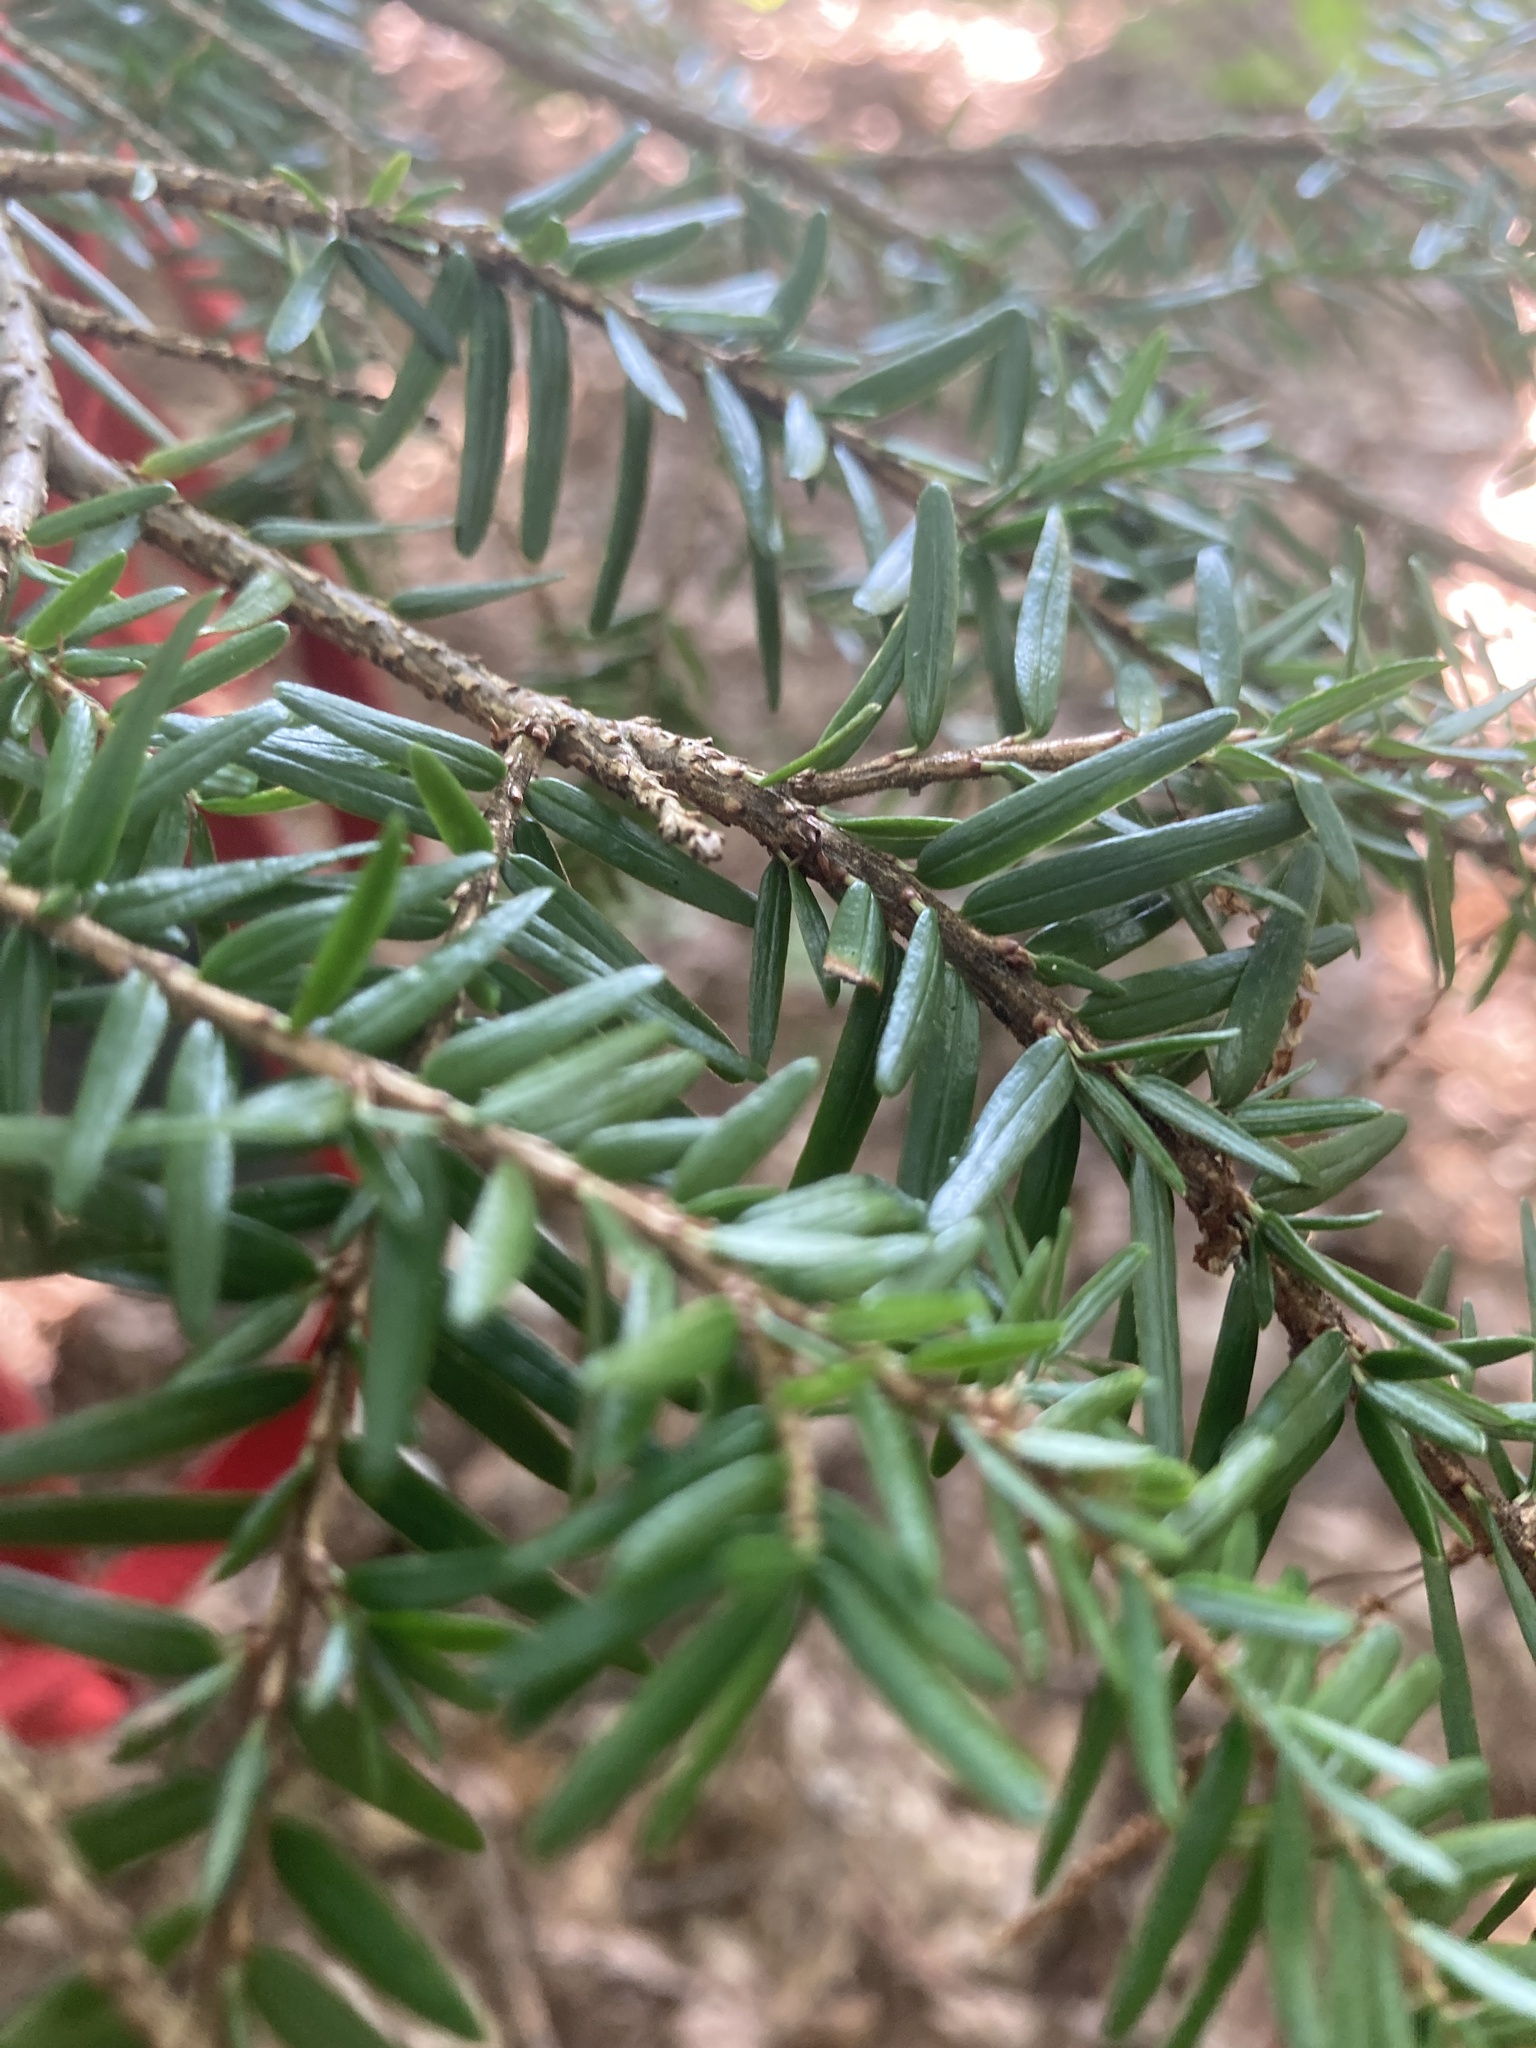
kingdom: Plantae
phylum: Tracheophyta
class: Pinopsida
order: Pinales
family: Pinaceae
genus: Tsuga
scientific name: Tsuga canadensis
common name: Eastern hemlock
